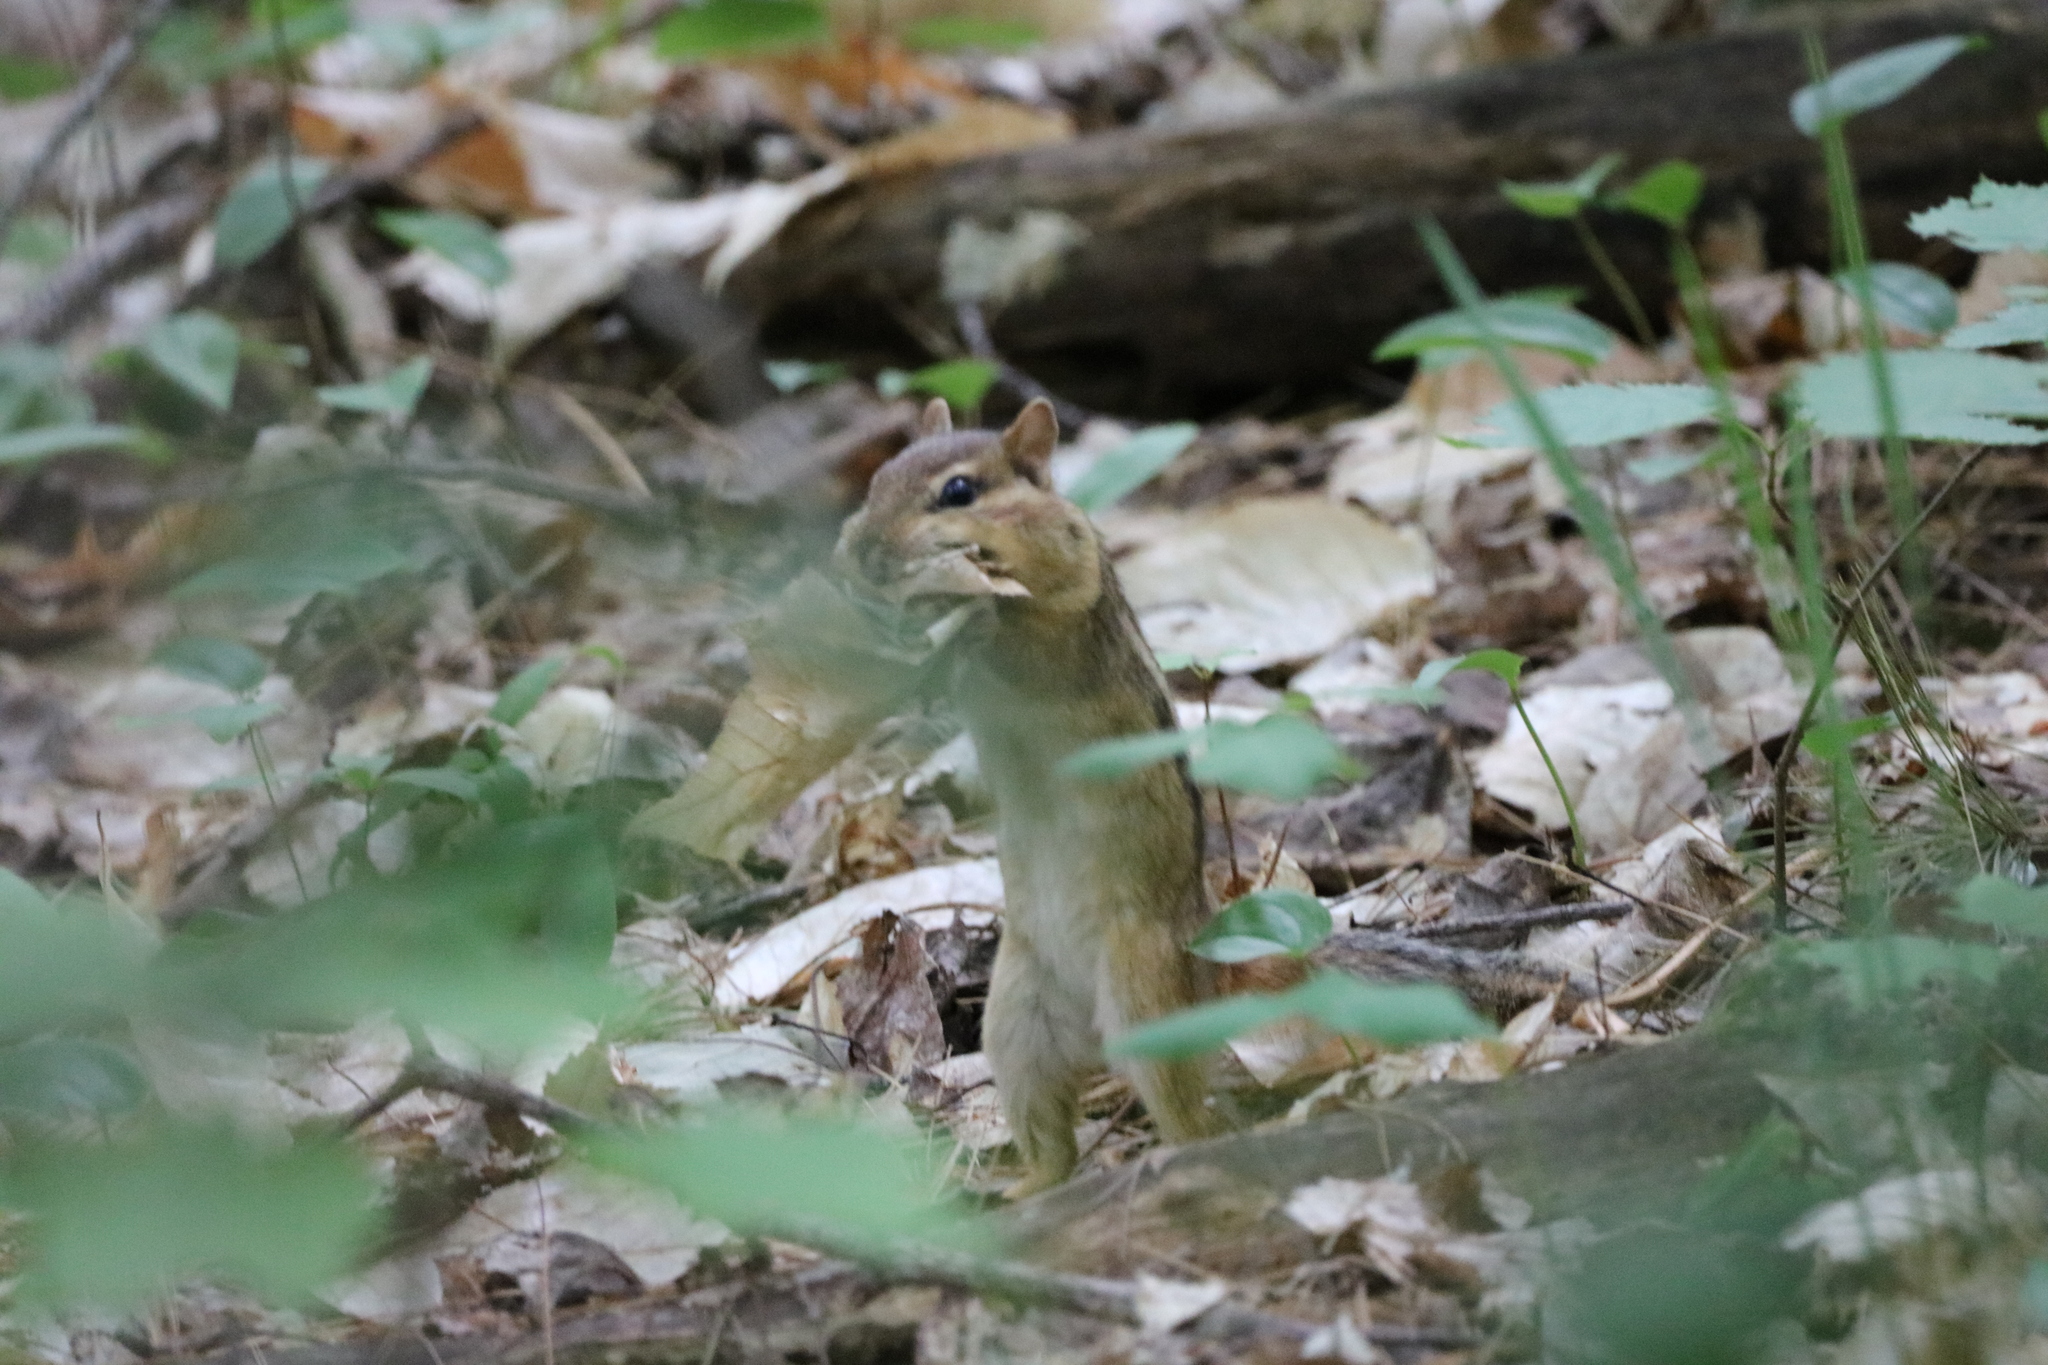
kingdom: Animalia
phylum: Chordata
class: Mammalia
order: Rodentia
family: Sciuridae
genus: Tamias
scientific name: Tamias striatus
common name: Eastern chipmunk
